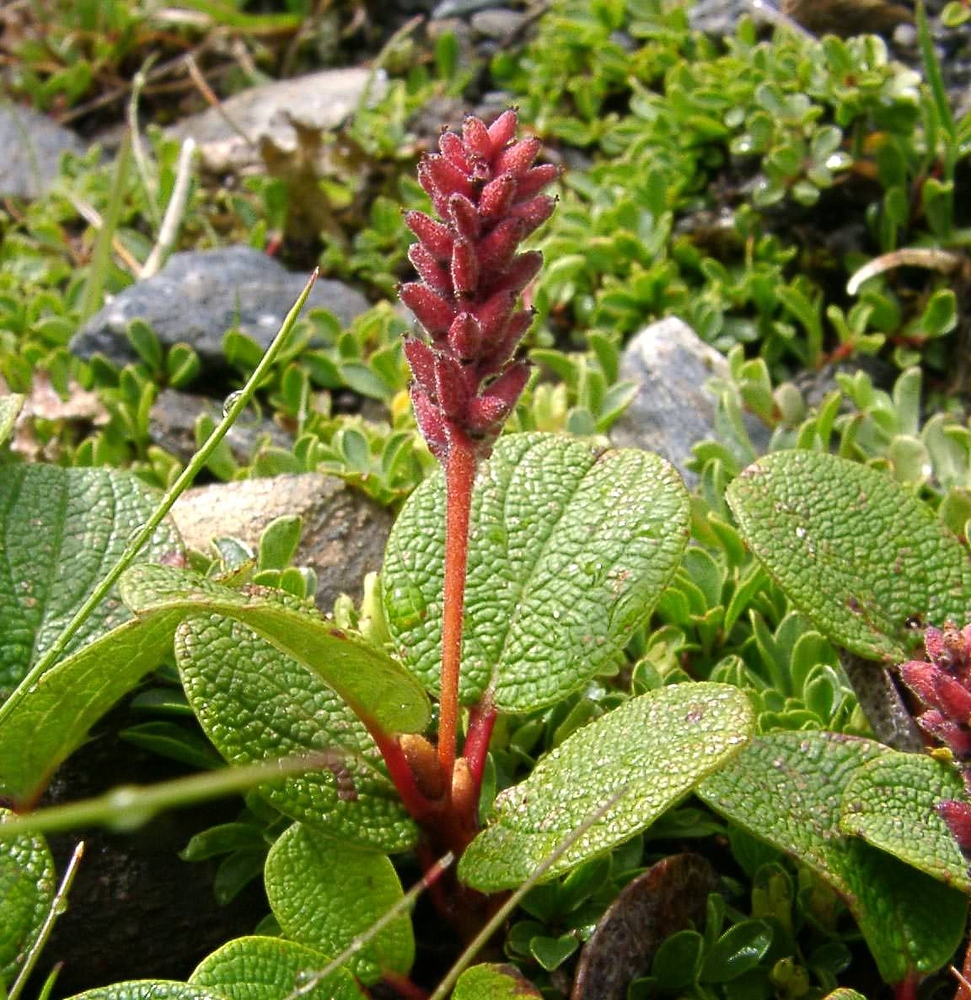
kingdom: Plantae
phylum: Tracheophyta
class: Magnoliopsida
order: Malpighiales
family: Salicaceae
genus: Salix
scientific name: Salix reticulata
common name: Net-leaved willow
